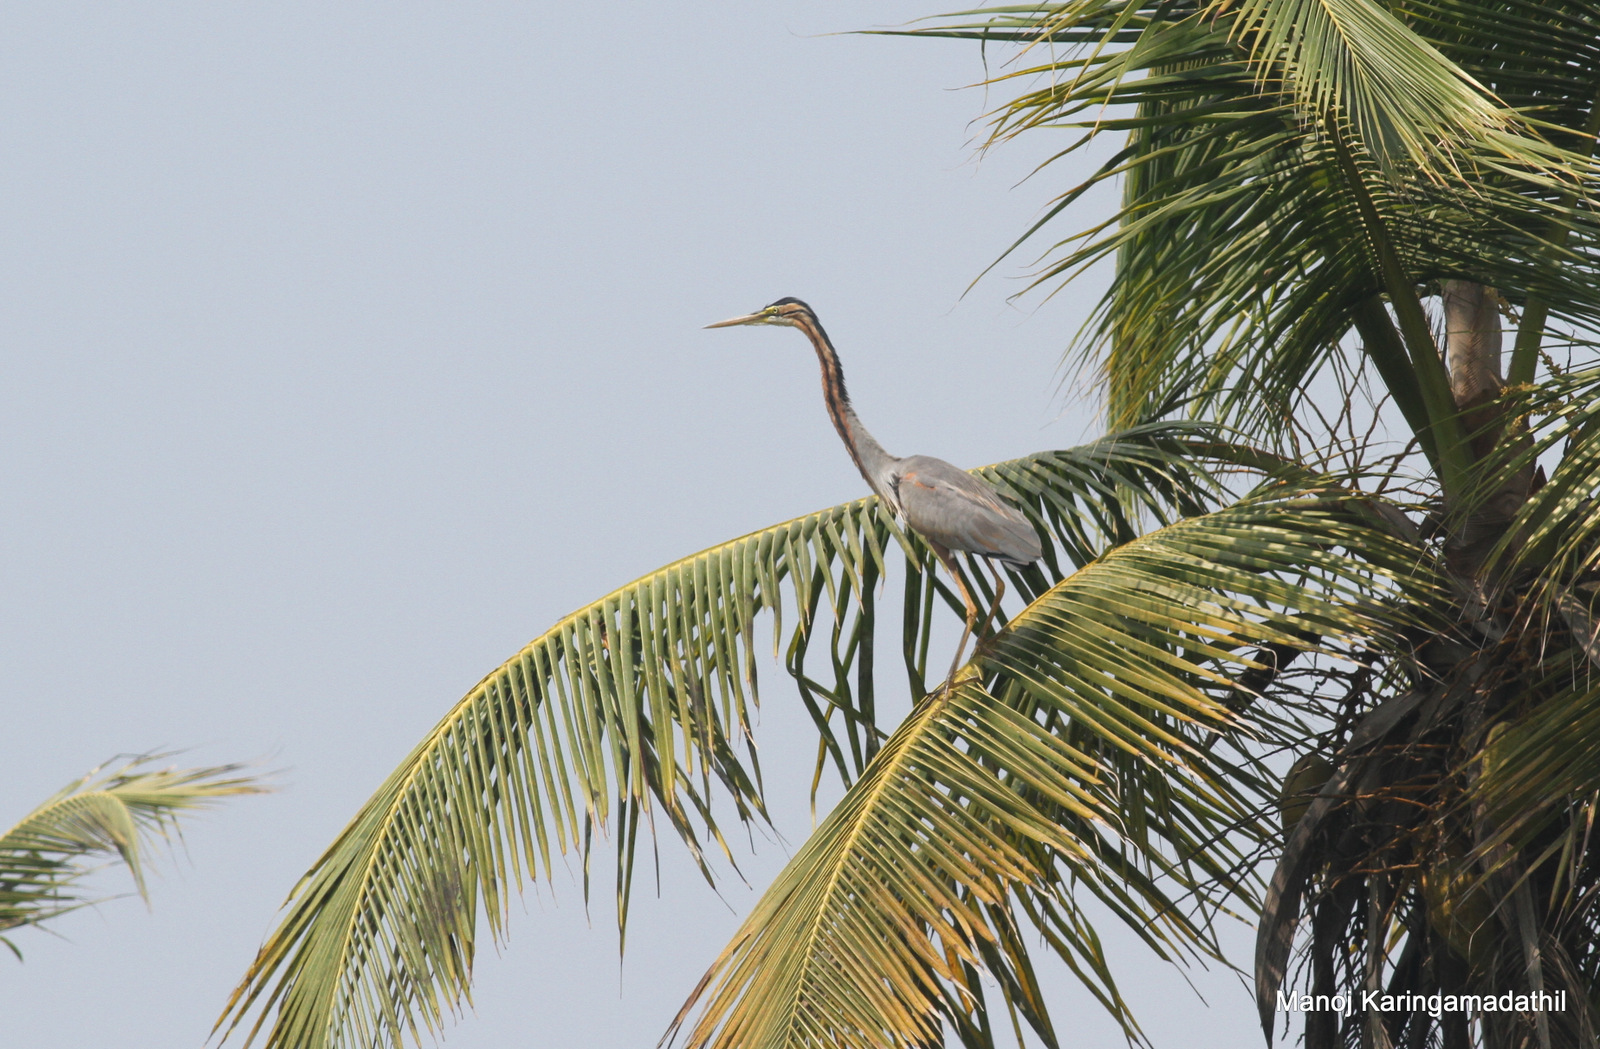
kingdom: Animalia
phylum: Chordata
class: Aves
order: Pelecaniformes
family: Ardeidae
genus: Ardea
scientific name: Ardea purpurea
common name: Purple heron
